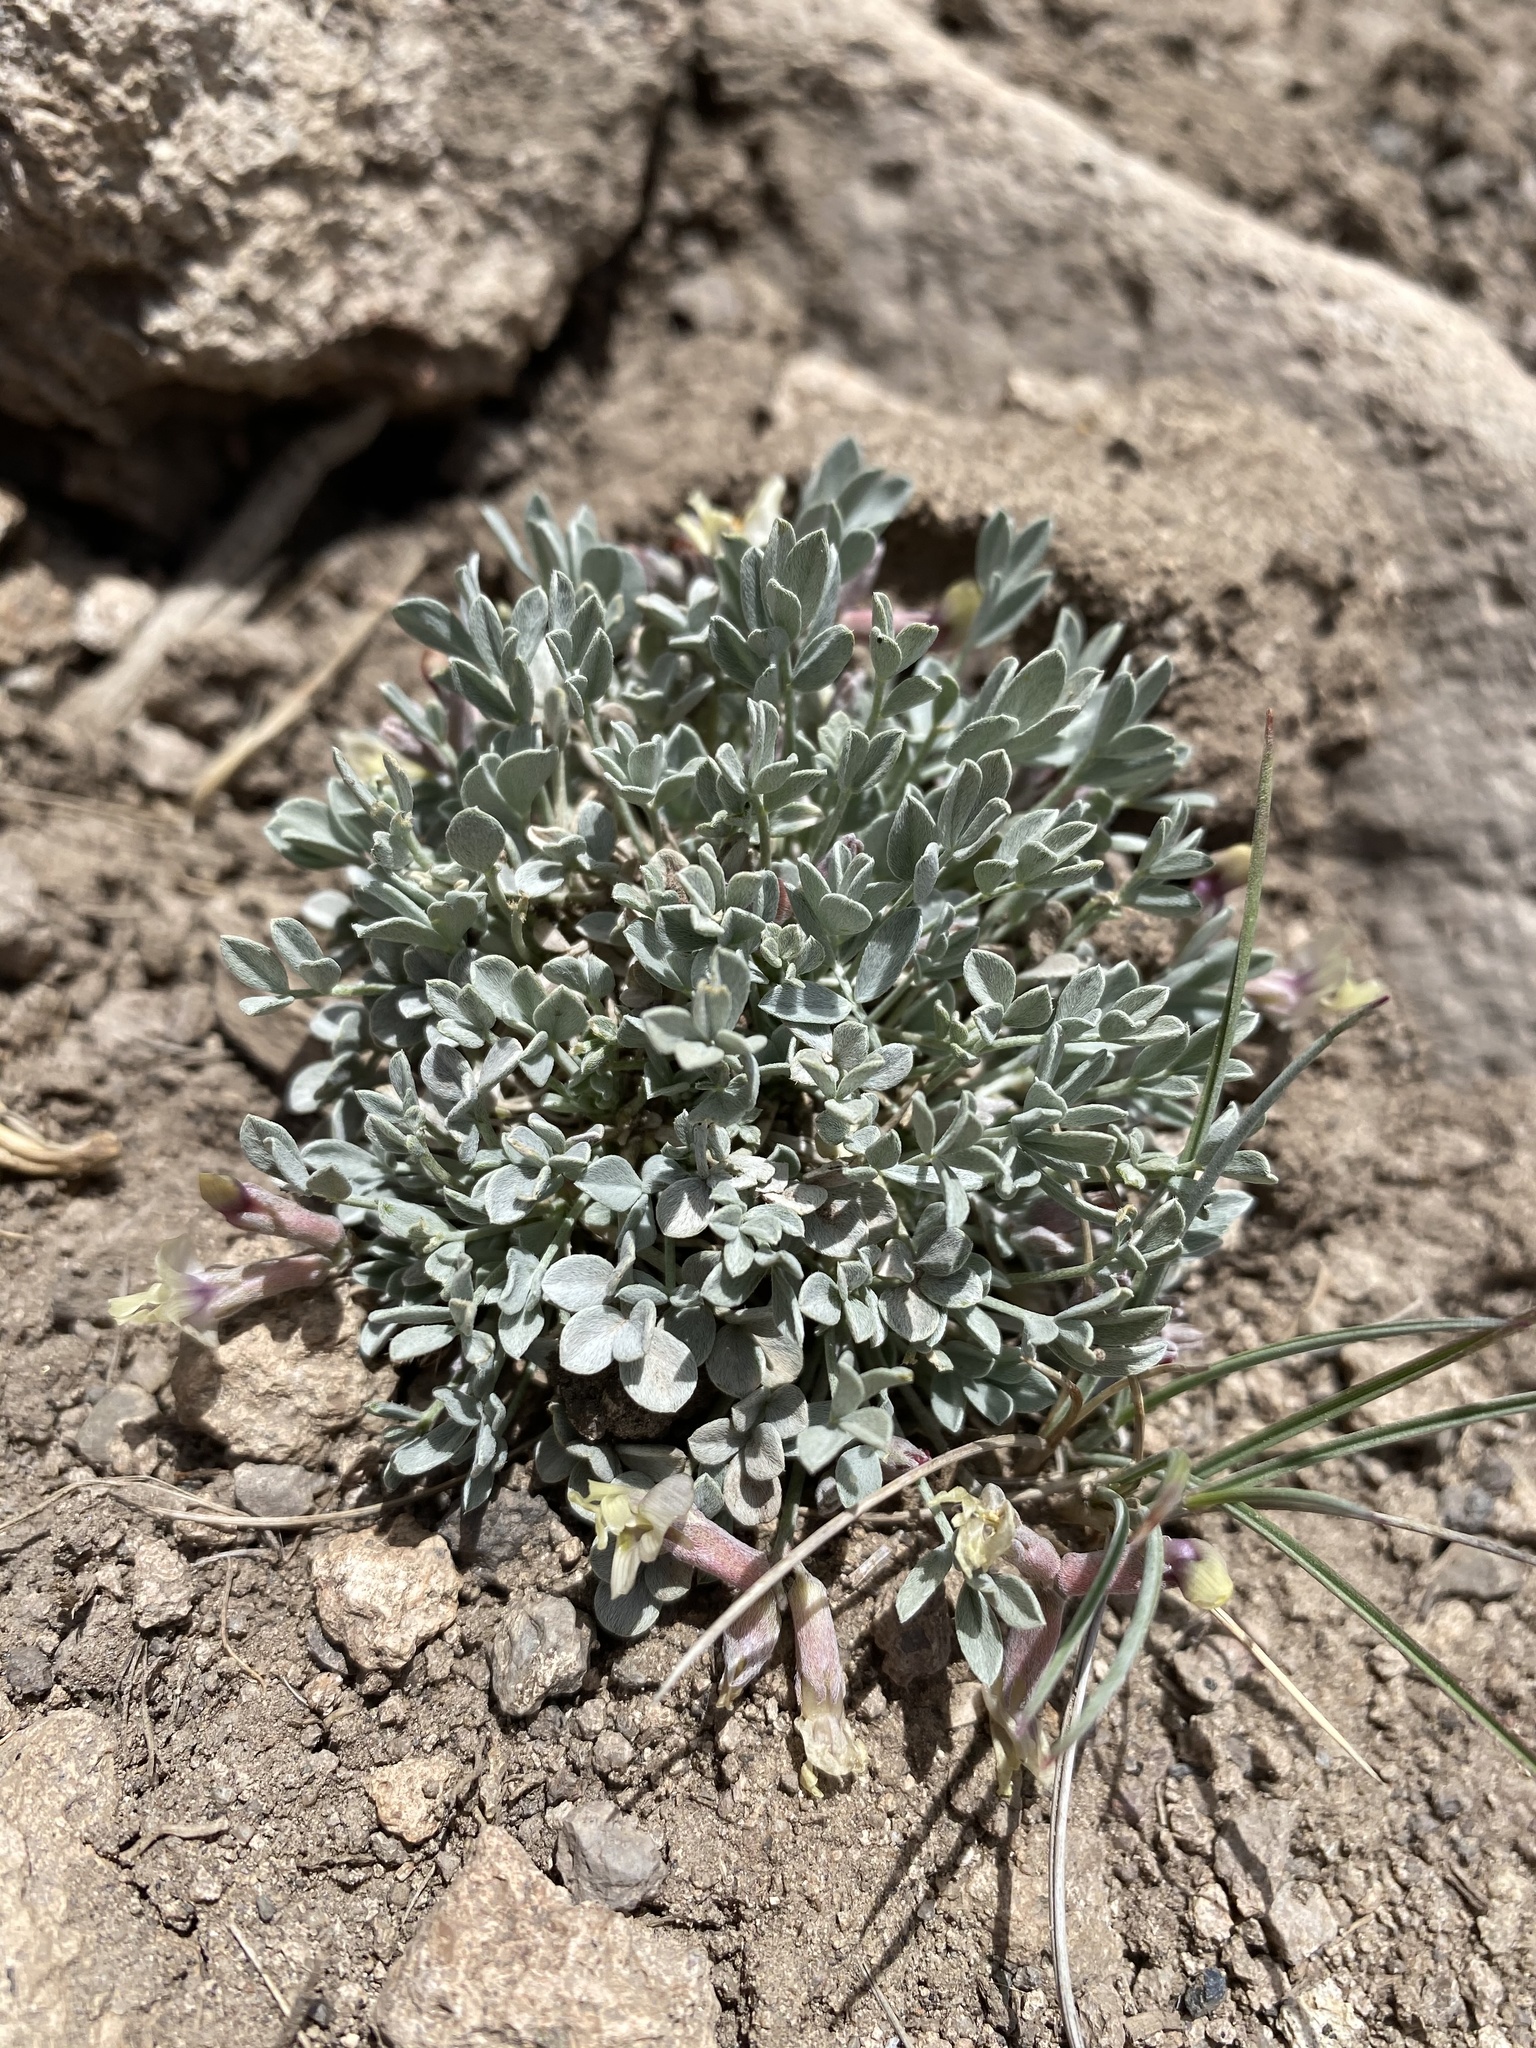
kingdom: Plantae
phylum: Tracheophyta
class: Magnoliopsida
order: Fabales
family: Fabaceae
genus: Astragalus
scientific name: Astragalus calycosus
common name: King's milkvetch
